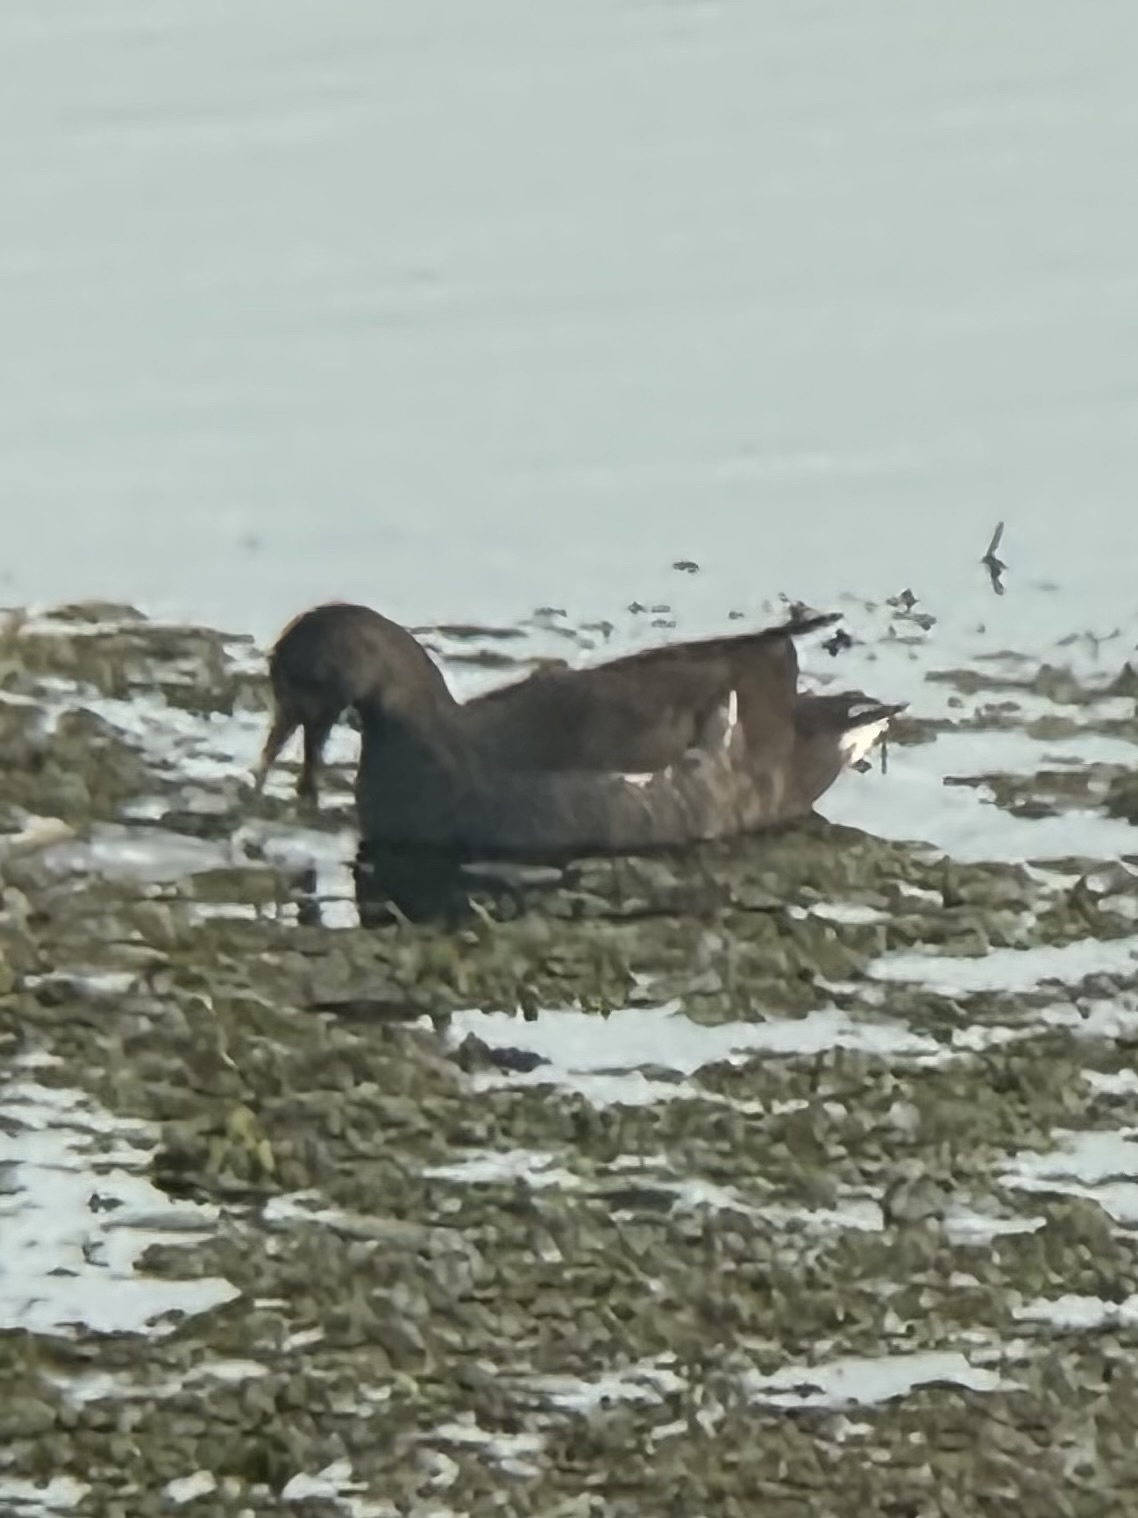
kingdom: Animalia
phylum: Chordata
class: Aves
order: Gruiformes
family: Rallidae
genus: Gallinula
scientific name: Gallinula chloropus
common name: Common moorhen
